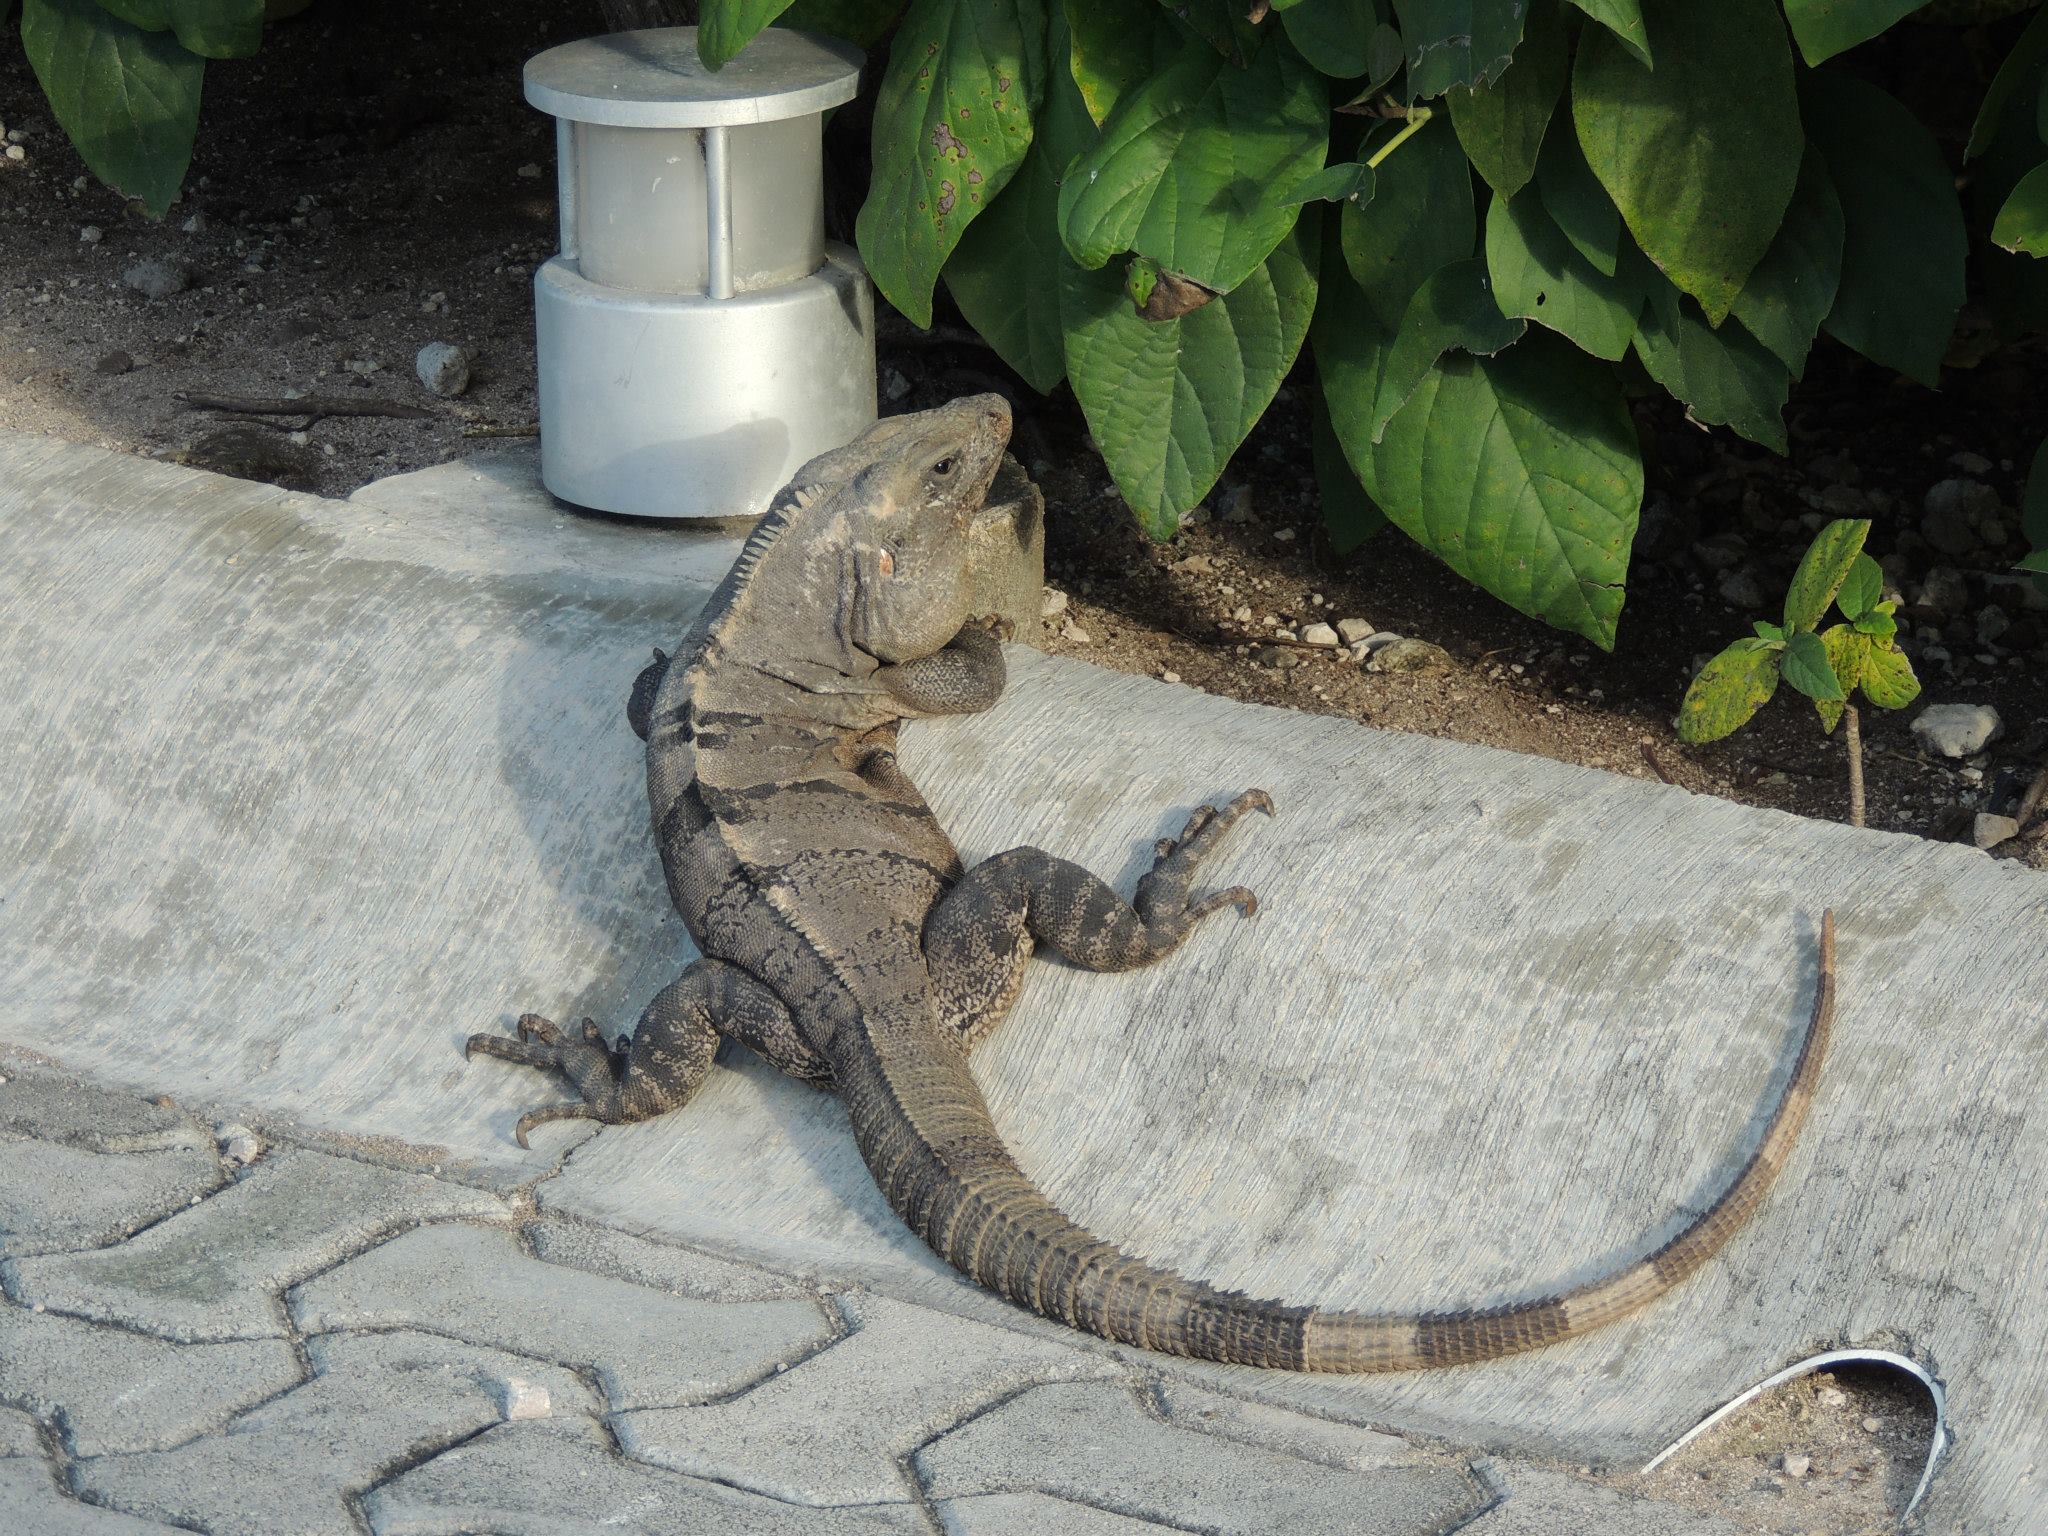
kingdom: Animalia
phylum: Chordata
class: Squamata
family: Iguanidae
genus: Ctenosaura
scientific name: Ctenosaura similis
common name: Black spiny-tailed iguana
